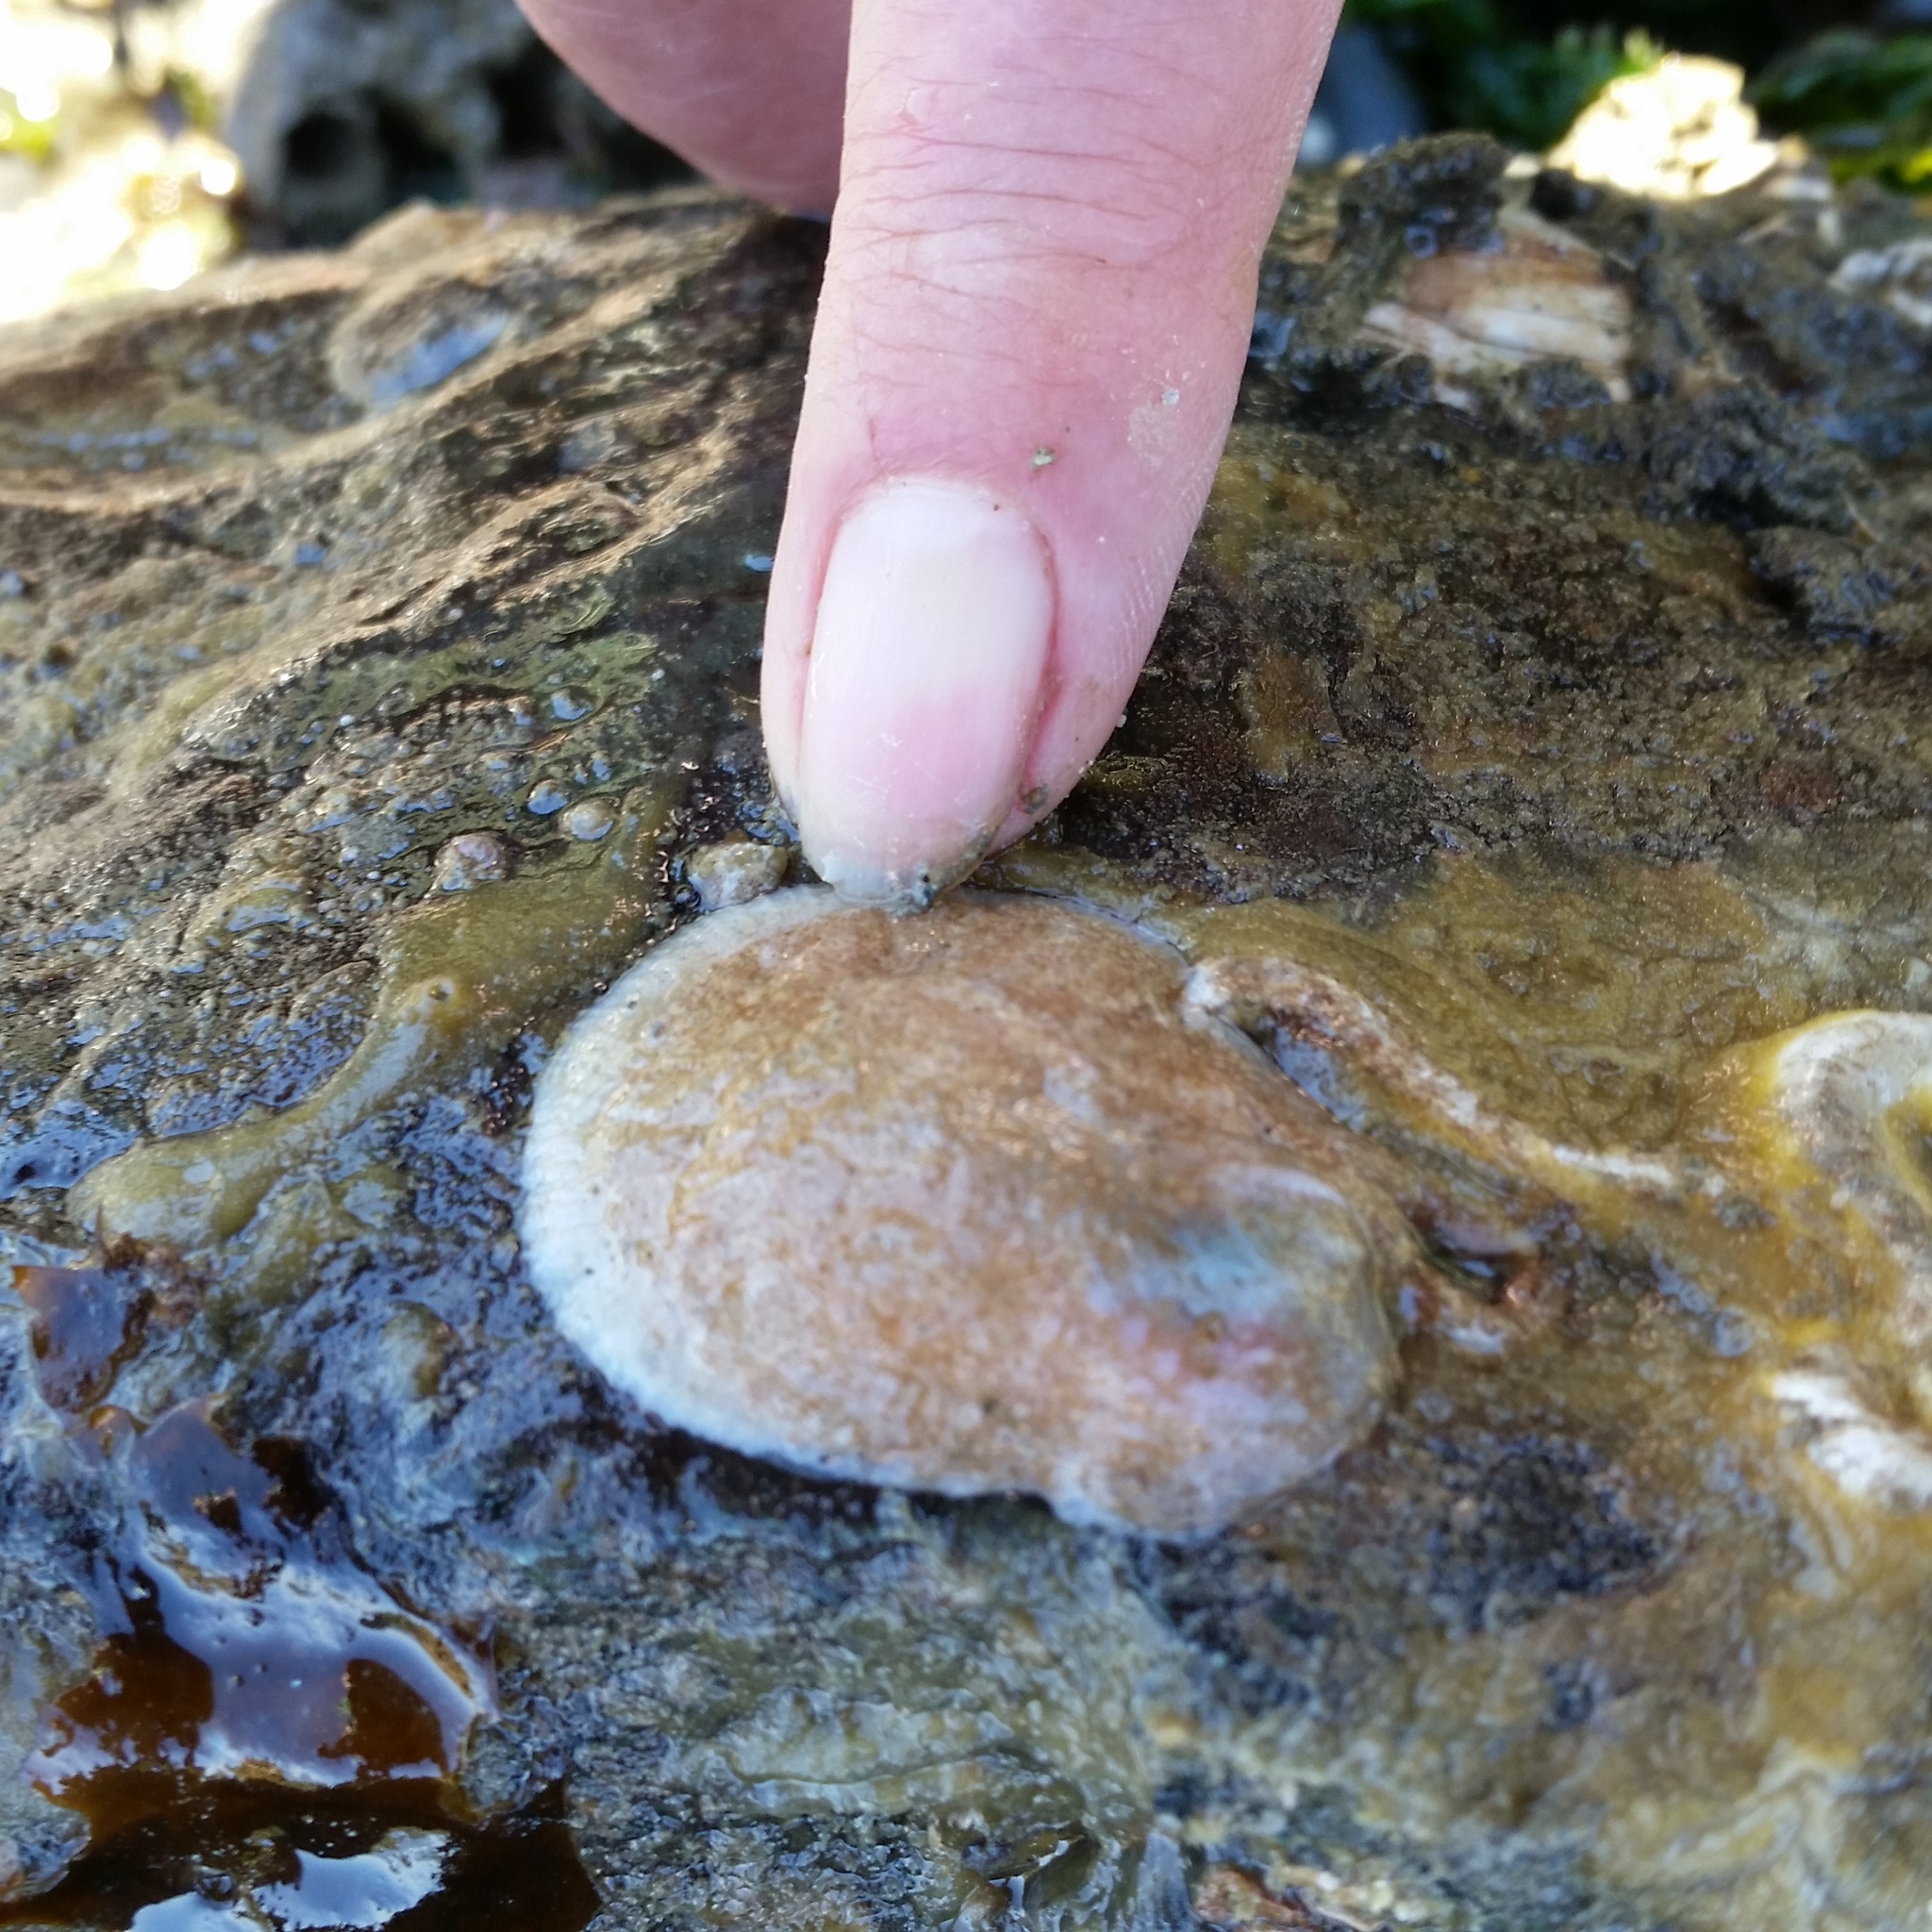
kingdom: Animalia
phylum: Mollusca
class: Bivalvia
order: Pectinida
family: Anomiidae
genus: Pododesmus
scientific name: Pododesmus macrochisma
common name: Alaska jingle
